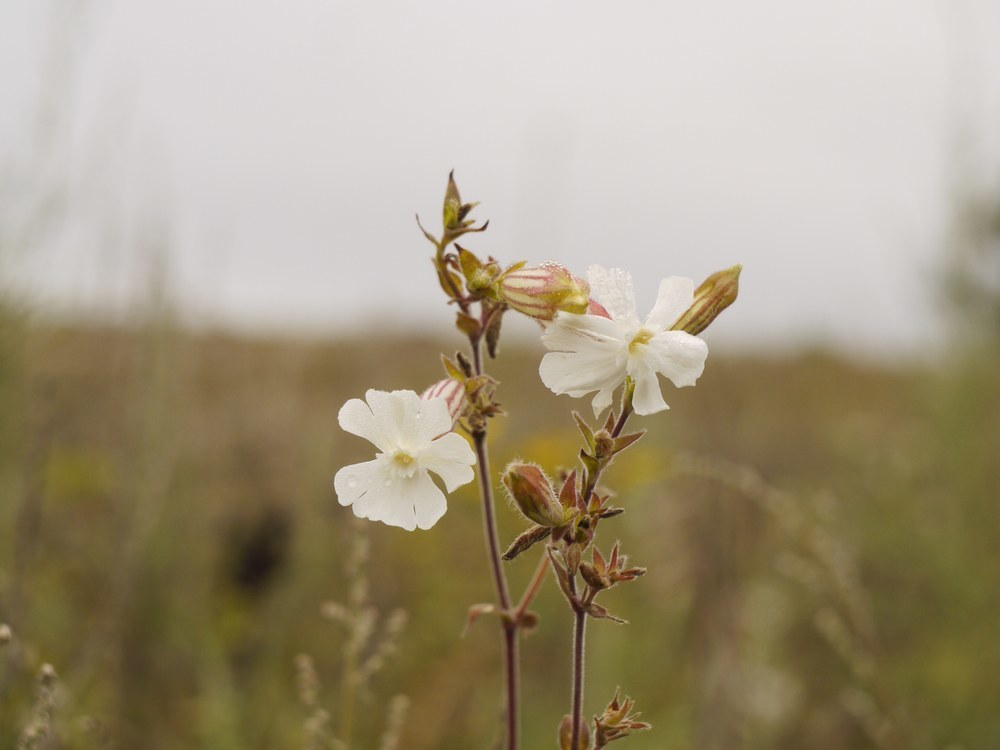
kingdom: Plantae
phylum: Tracheophyta
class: Magnoliopsida
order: Caryophyllales
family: Caryophyllaceae
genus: Silene
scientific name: Silene latifolia
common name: White campion
